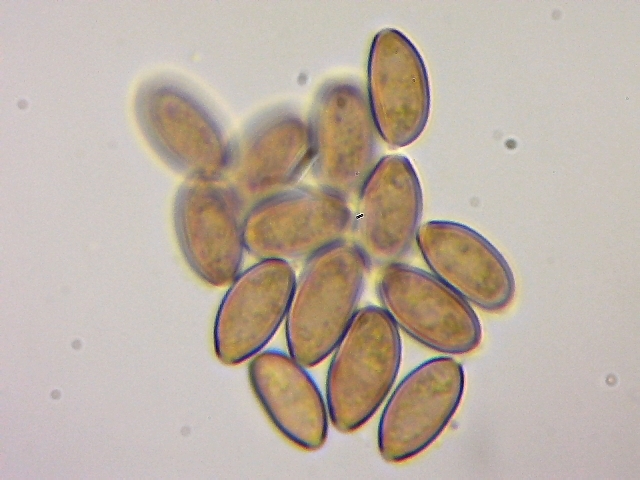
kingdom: Fungi
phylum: Basidiomycota
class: Agaricomycetes
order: Agaricales
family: Hymenogastraceae
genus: Psilocybe
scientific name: Psilocybe pelliculosa
